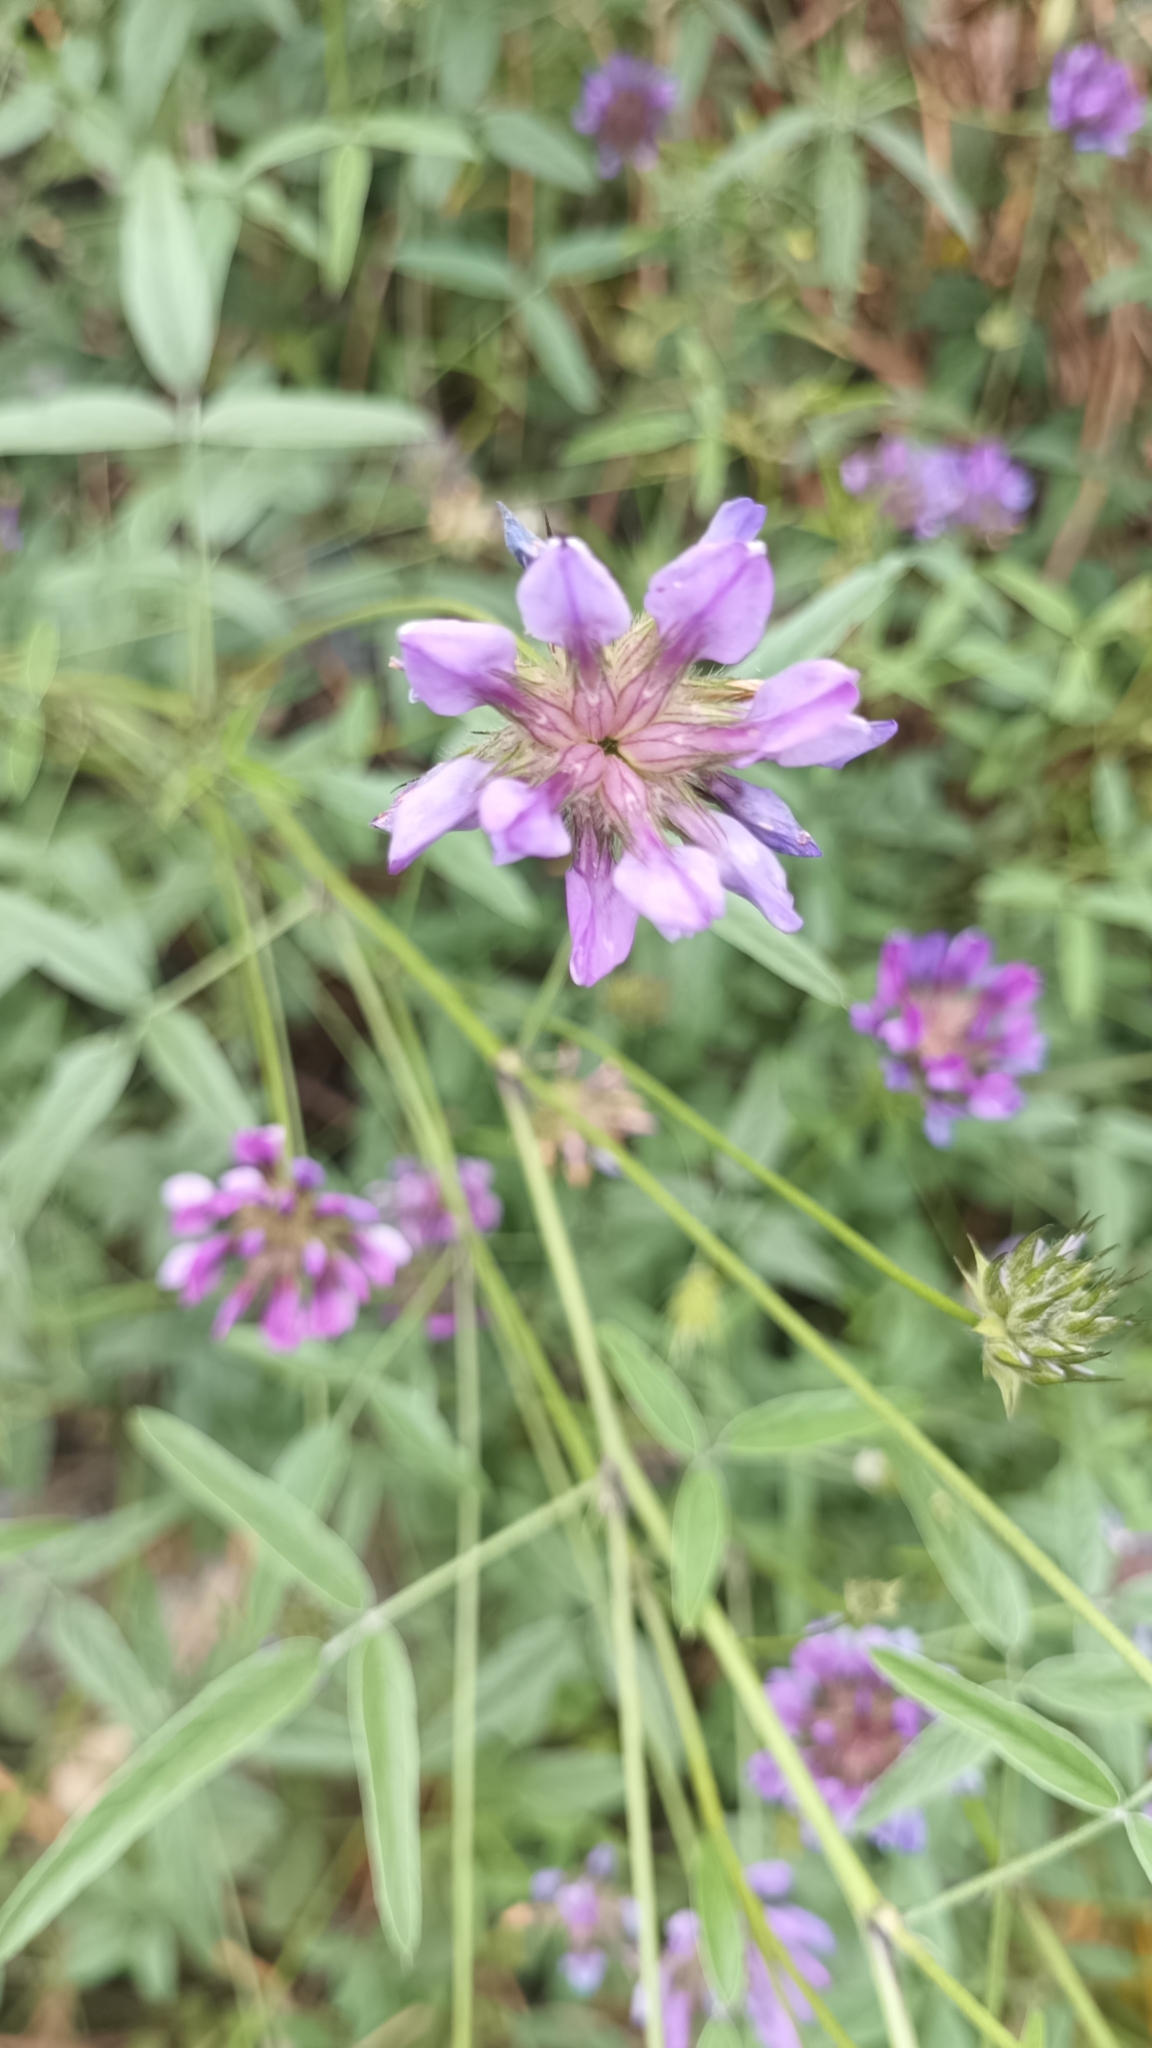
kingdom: Plantae
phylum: Tracheophyta
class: Magnoliopsida
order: Fabales
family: Fabaceae
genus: Bituminaria
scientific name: Bituminaria bituminosa
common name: Arabian pea
